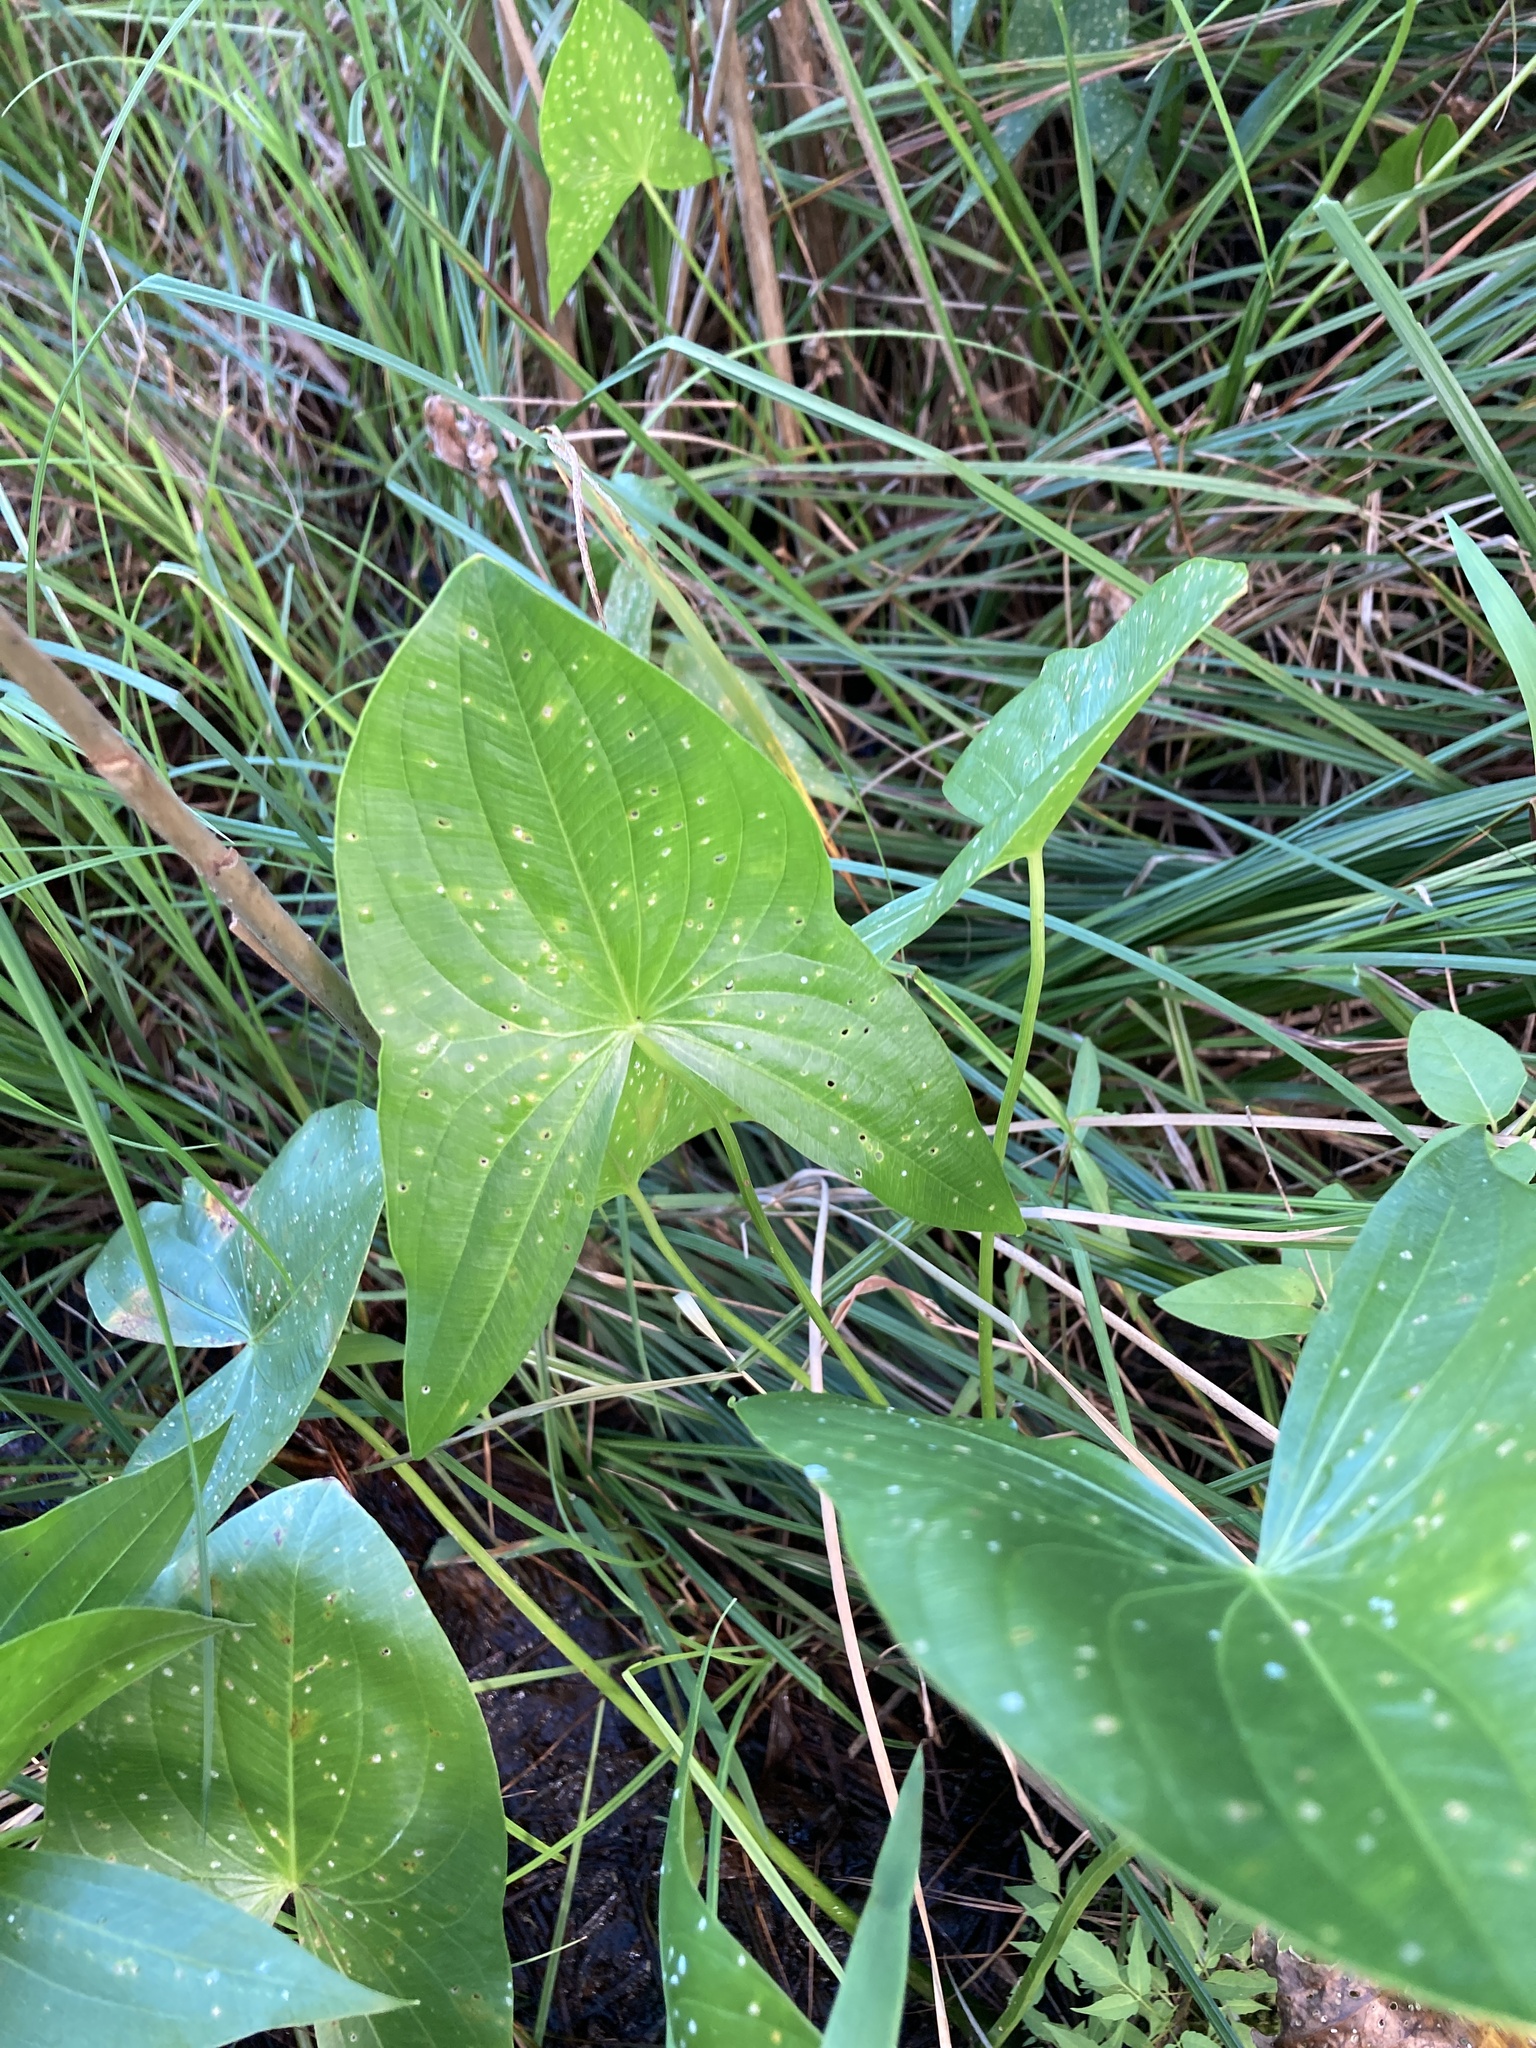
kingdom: Plantae
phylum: Tracheophyta
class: Liliopsida
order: Alismatales
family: Alismataceae
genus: Sagittaria
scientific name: Sagittaria latifolia
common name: Duck-potato
